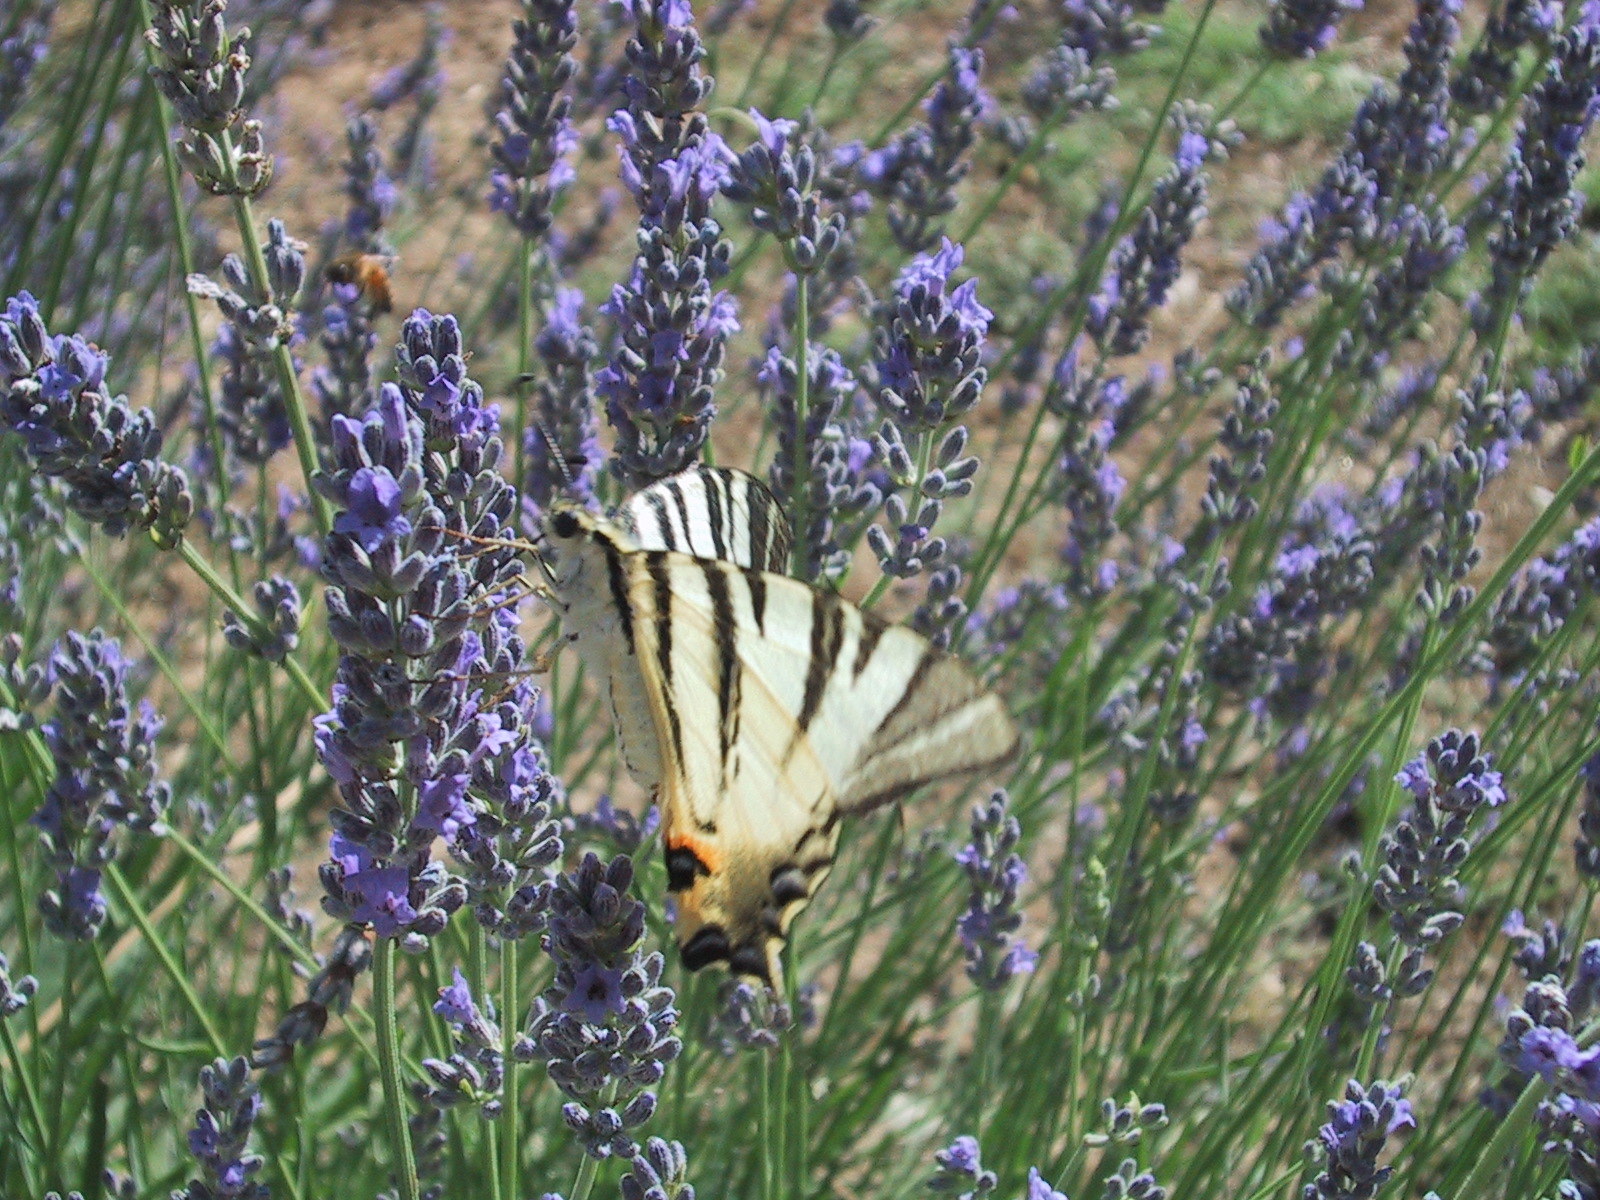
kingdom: Animalia
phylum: Arthropoda
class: Insecta
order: Lepidoptera
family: Papilionidae
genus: Iphiclides
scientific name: Iphiclides podalirius
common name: Scarce swallowtail
